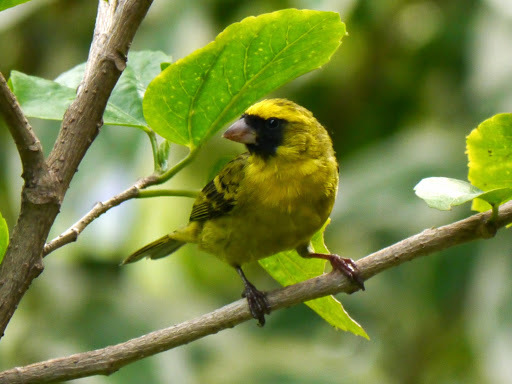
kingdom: Animalia
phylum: Chordata
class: Aves
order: Passeriformes
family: Fringillidae
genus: Crithagra
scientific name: Crithagra capistrata
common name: Black-faced canary
